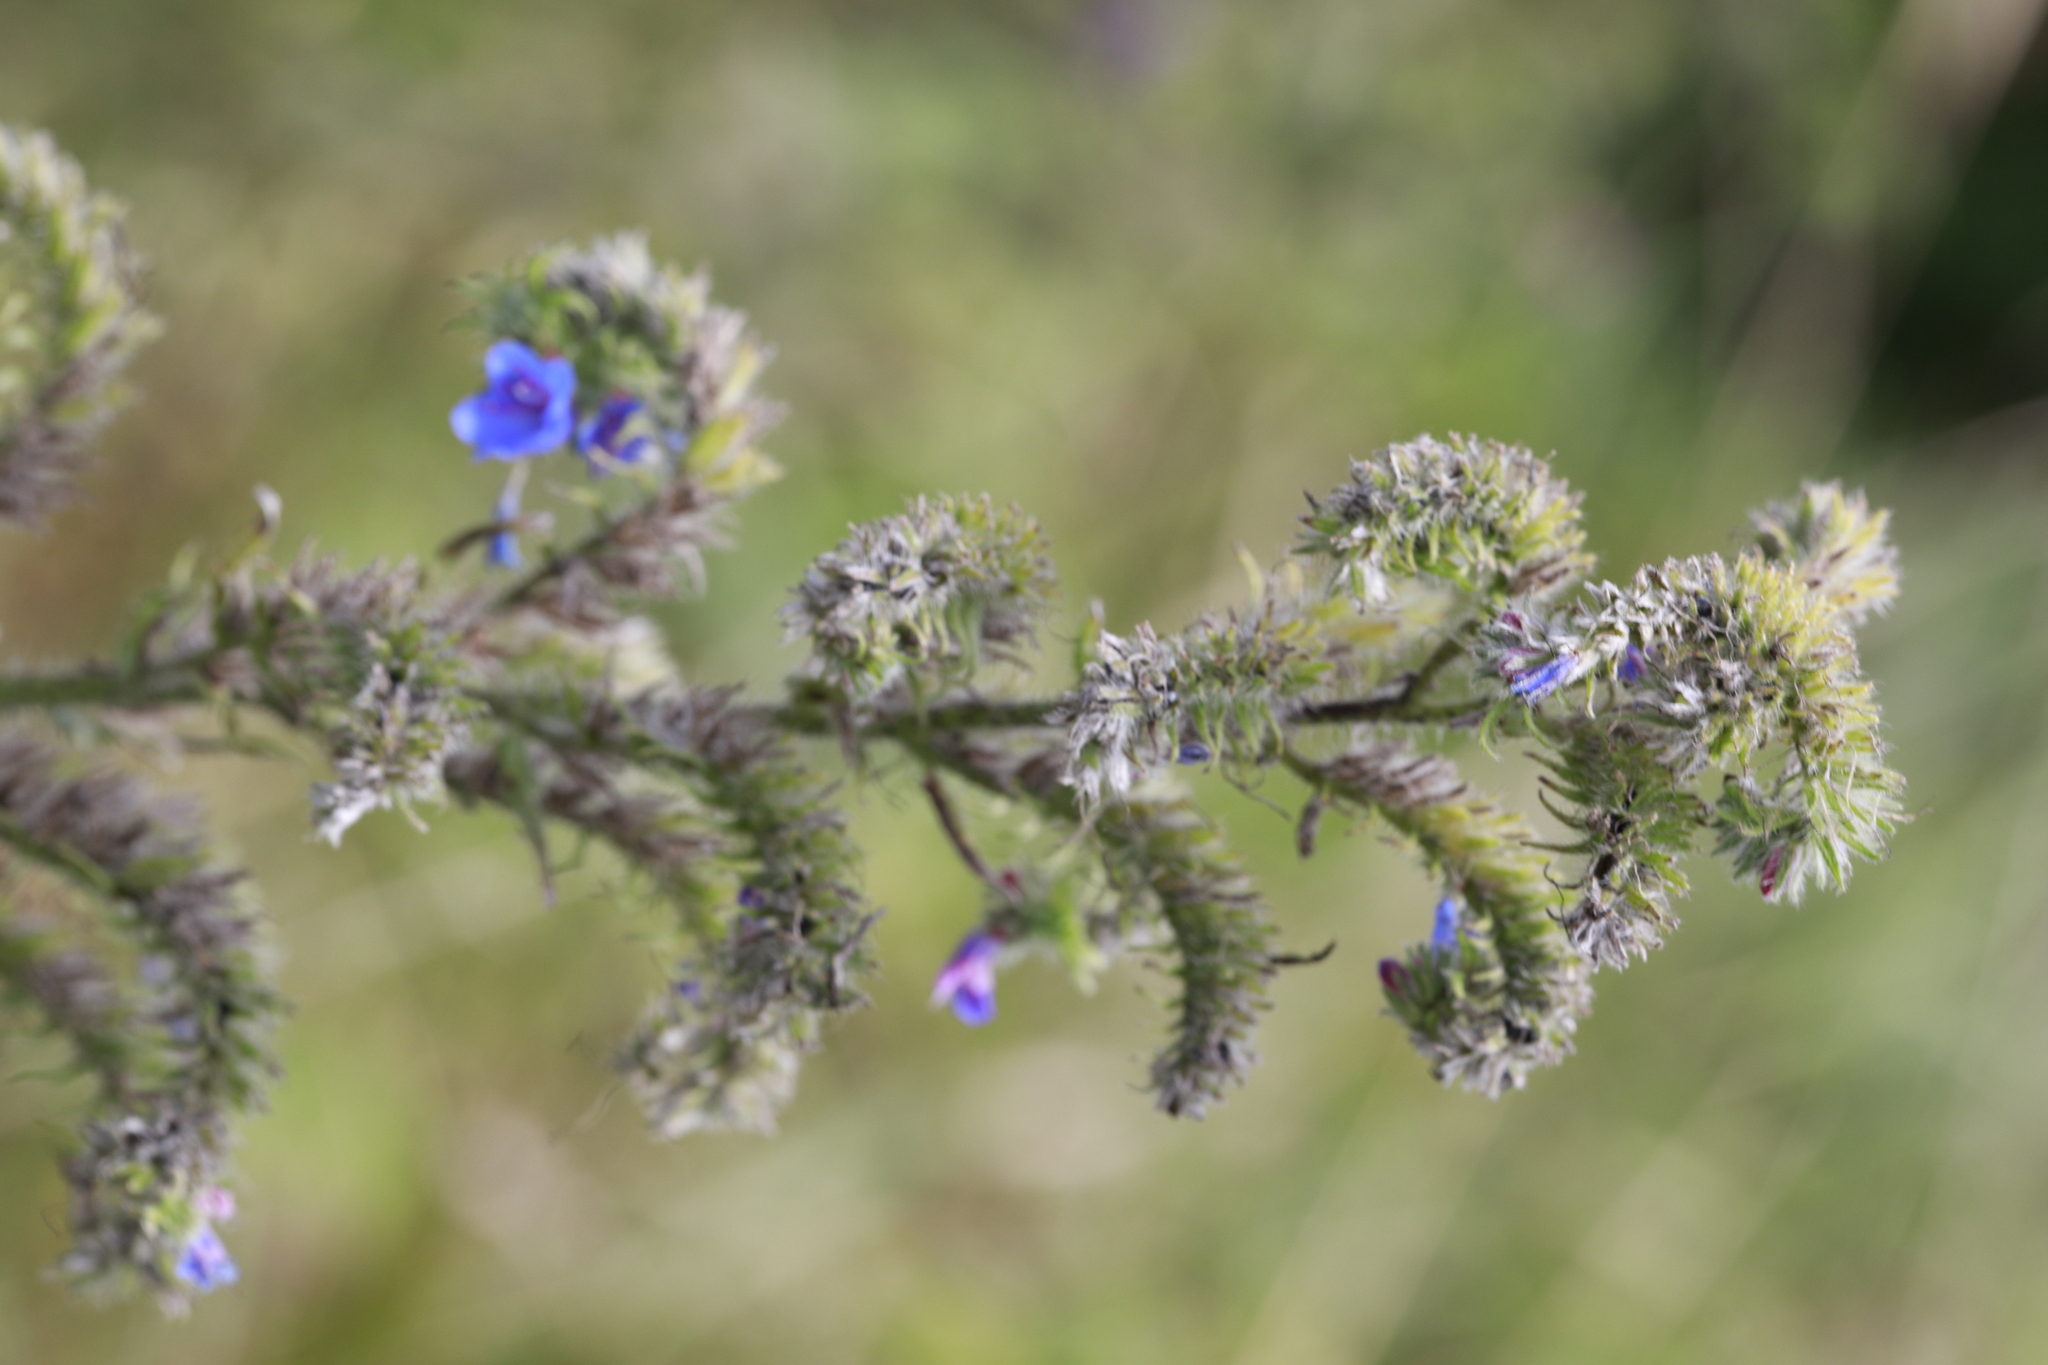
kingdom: Plantae
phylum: Tracheophyta
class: Magnoliopsida
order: Boraginales
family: Boraginaceae
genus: Echium
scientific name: Echium vulgare
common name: Common viper's bugloss
